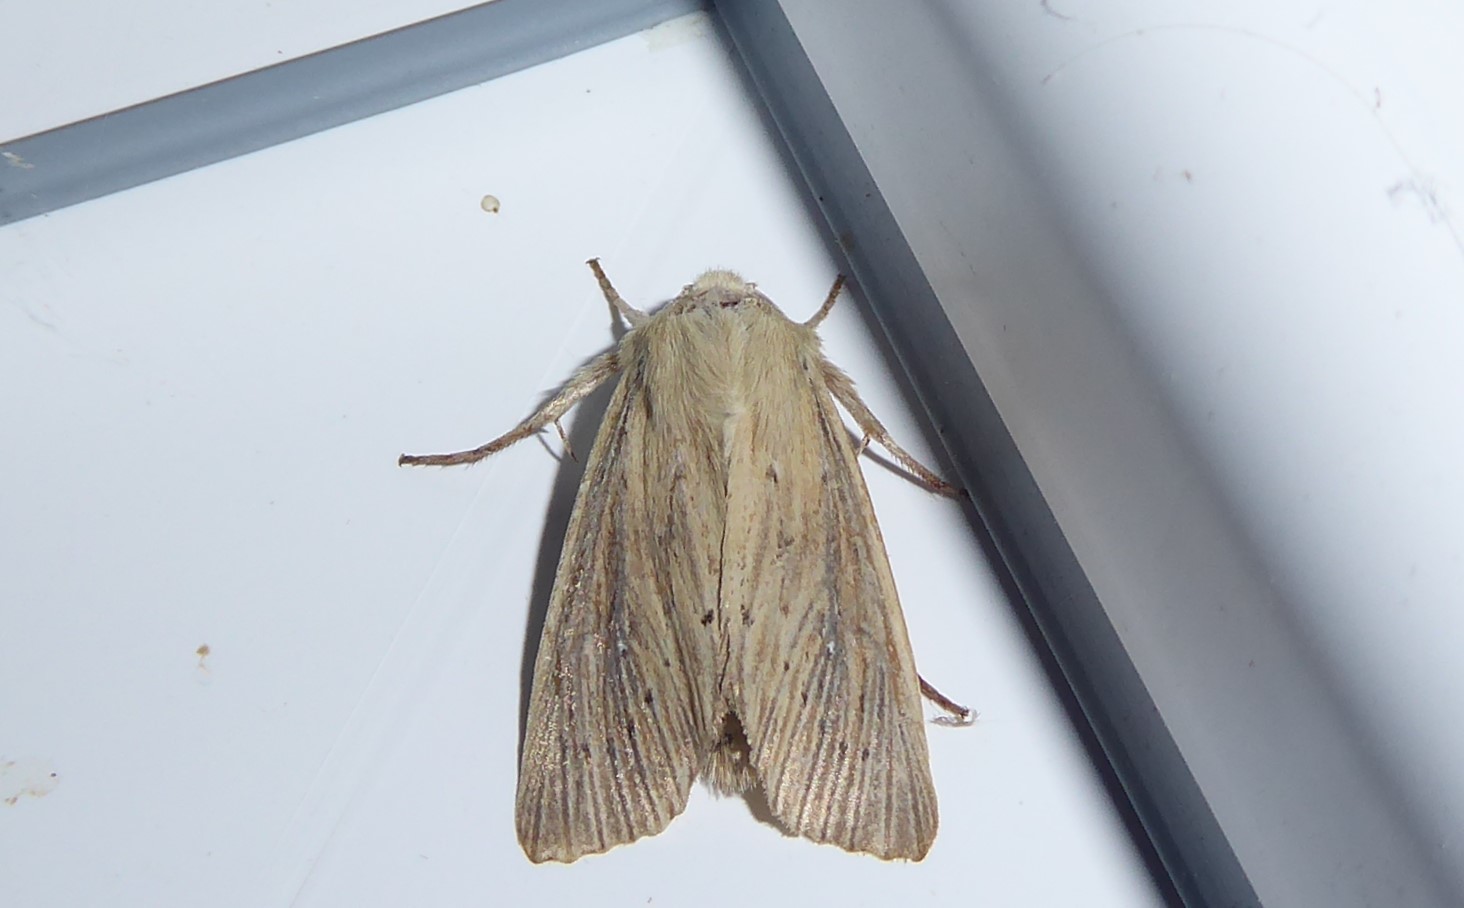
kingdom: Animalia
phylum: Arthropoda
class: Insecta
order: Lepidoptera
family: Noctuidae
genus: Ichneutica
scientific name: Ichneutica arotis
